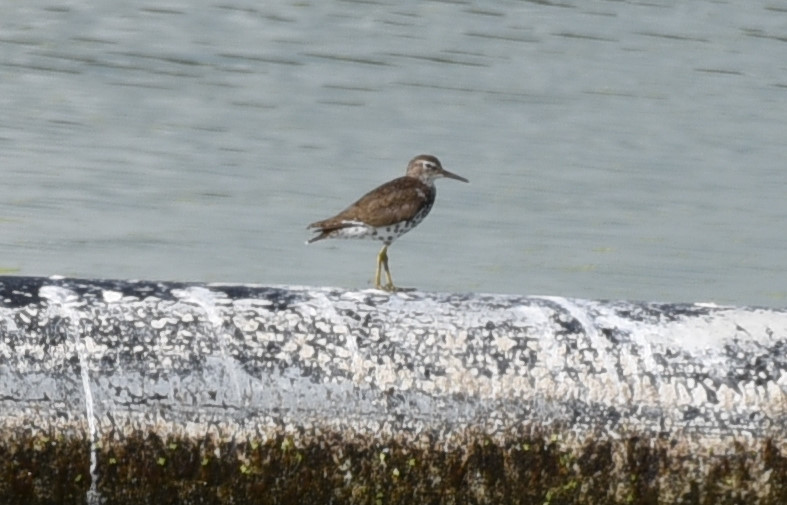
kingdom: Animalia
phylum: Chordata
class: Aves
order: Charadriiformes
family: Scolopacidae
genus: Actitis
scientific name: Actitis macularius
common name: Spotted sandpiper
